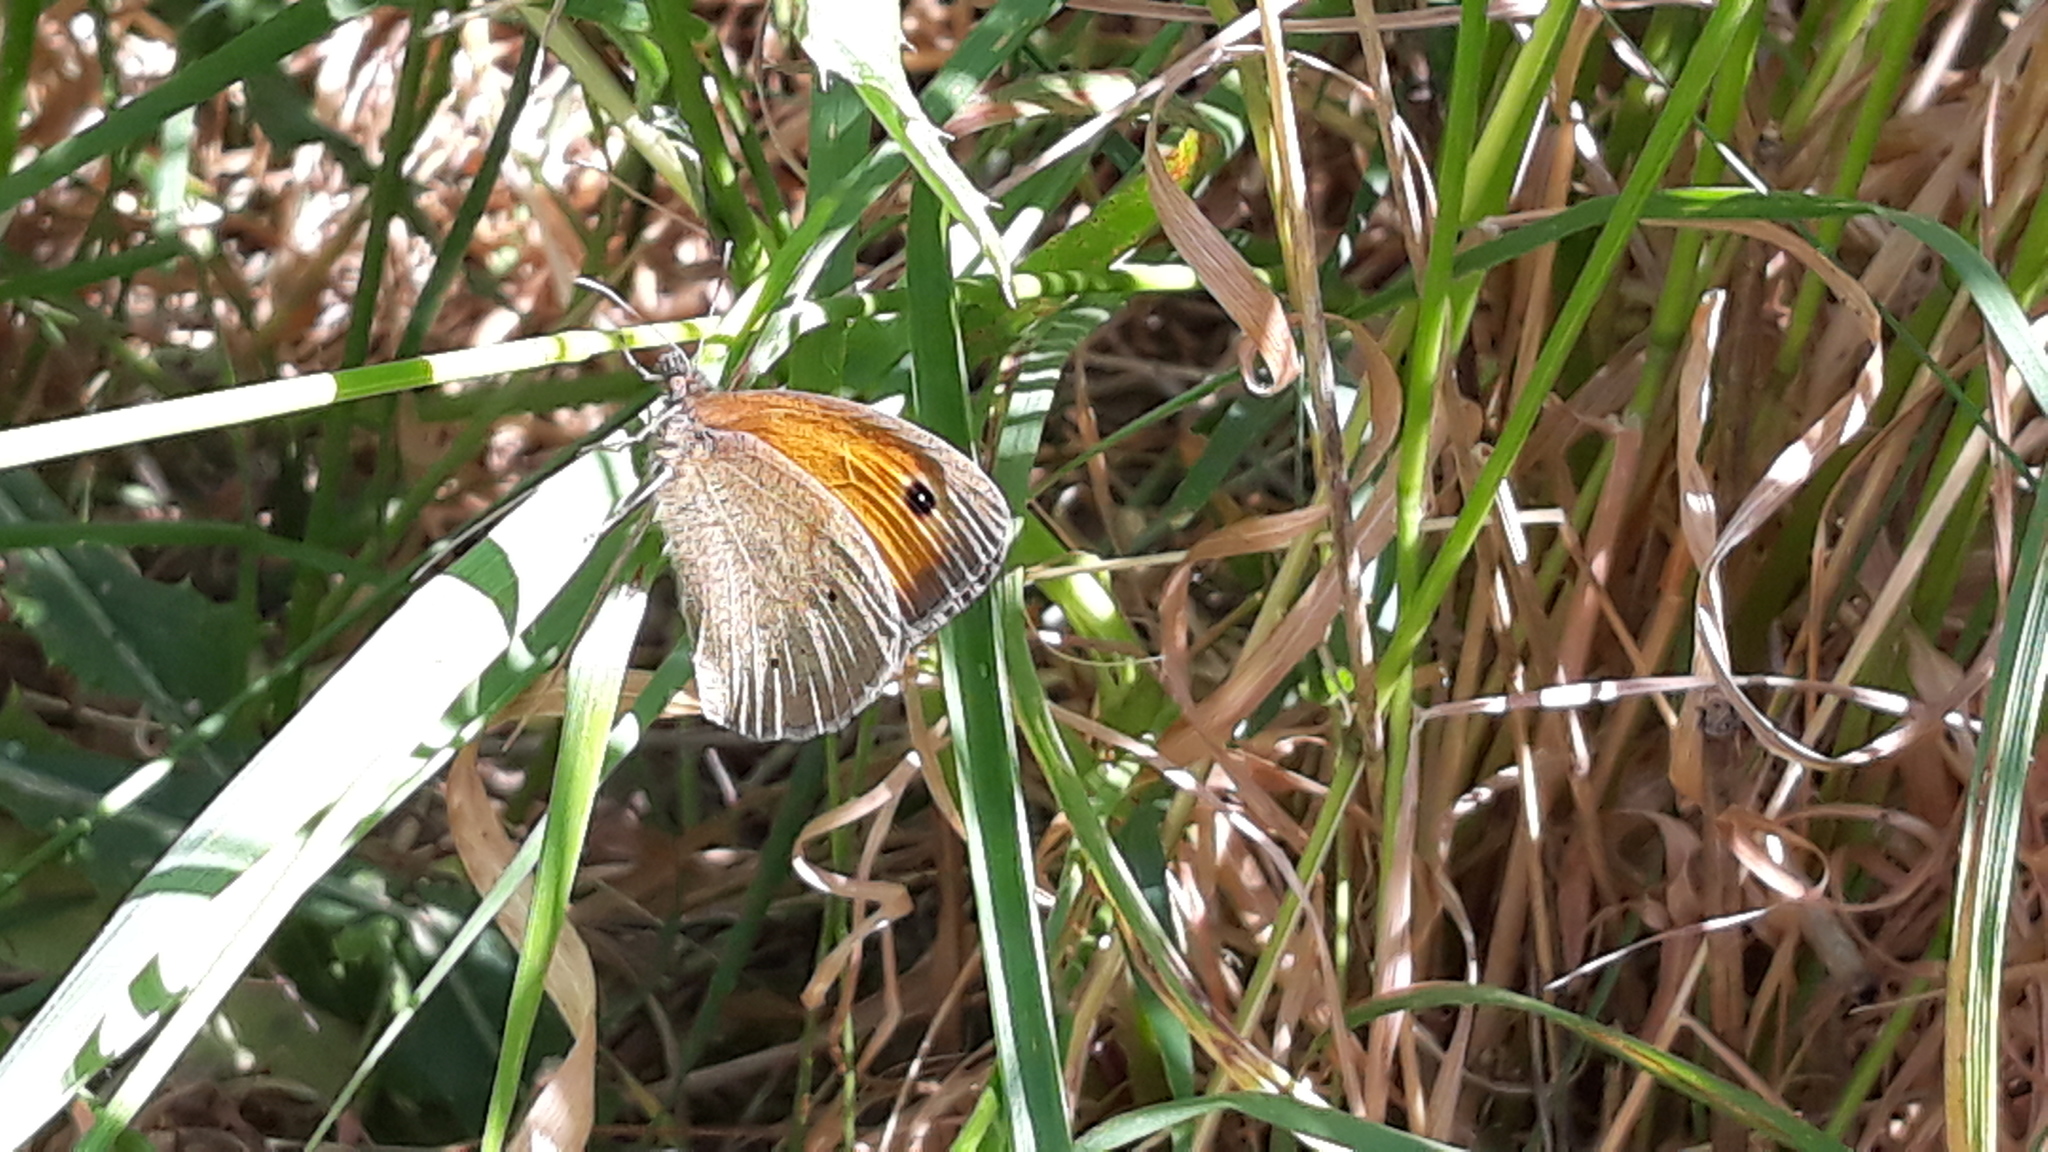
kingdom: Animalia
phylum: Arthropoda
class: Insecta
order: Lepidoptera
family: Nymphalidae
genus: Maniola
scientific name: Maniola jurtina
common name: Meadow brown
